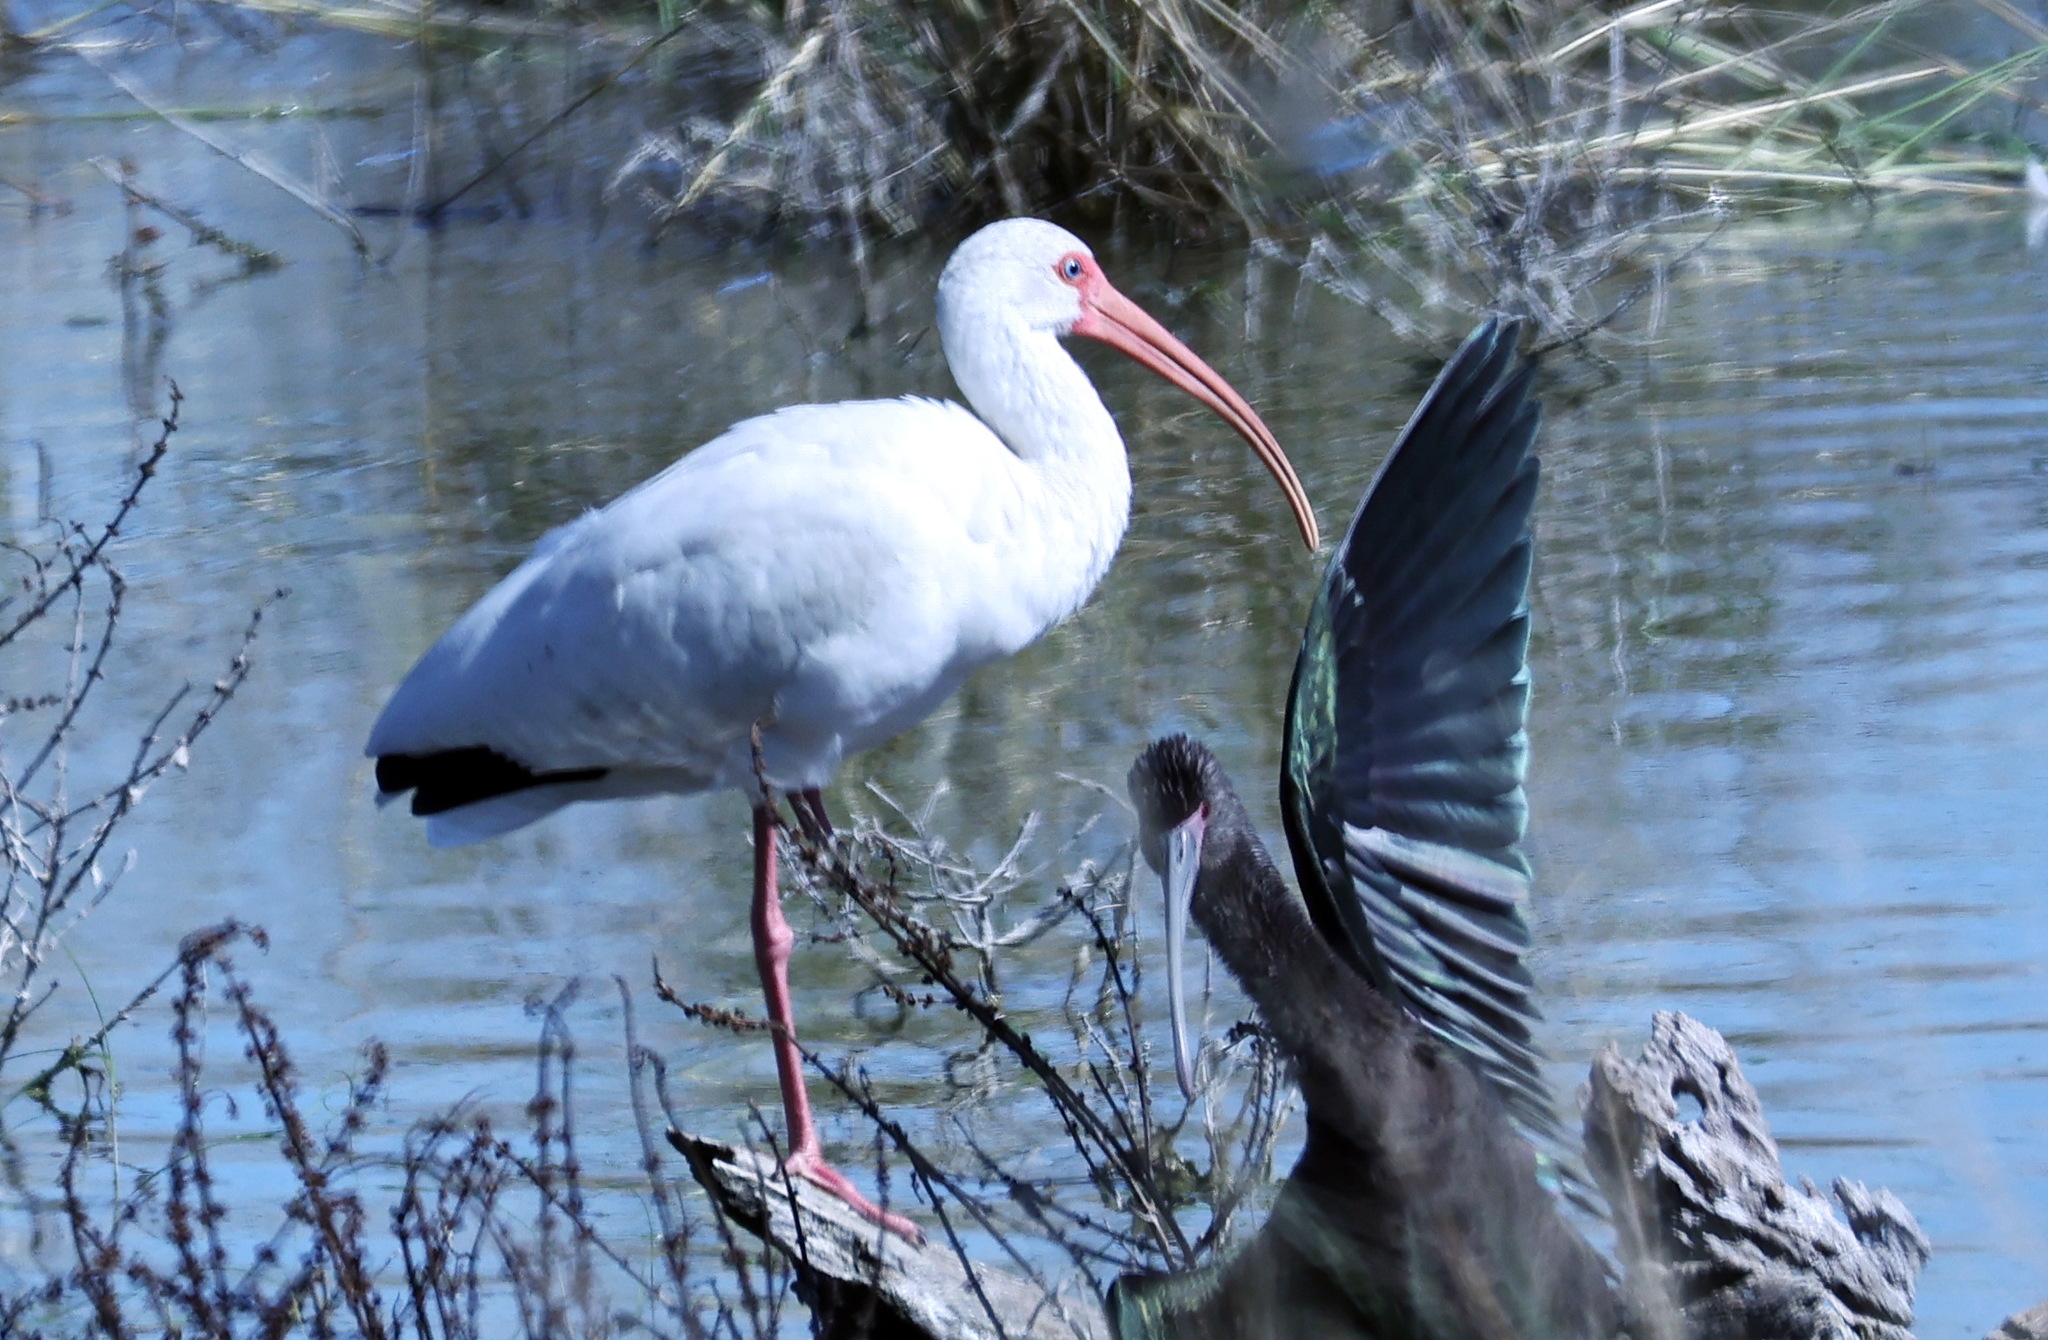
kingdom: Animalia
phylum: Chordata
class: Aves
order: Pelecaniformes
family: Threskiornithidae
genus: Eudocimus
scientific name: Eudocimus albus
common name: White ibis
